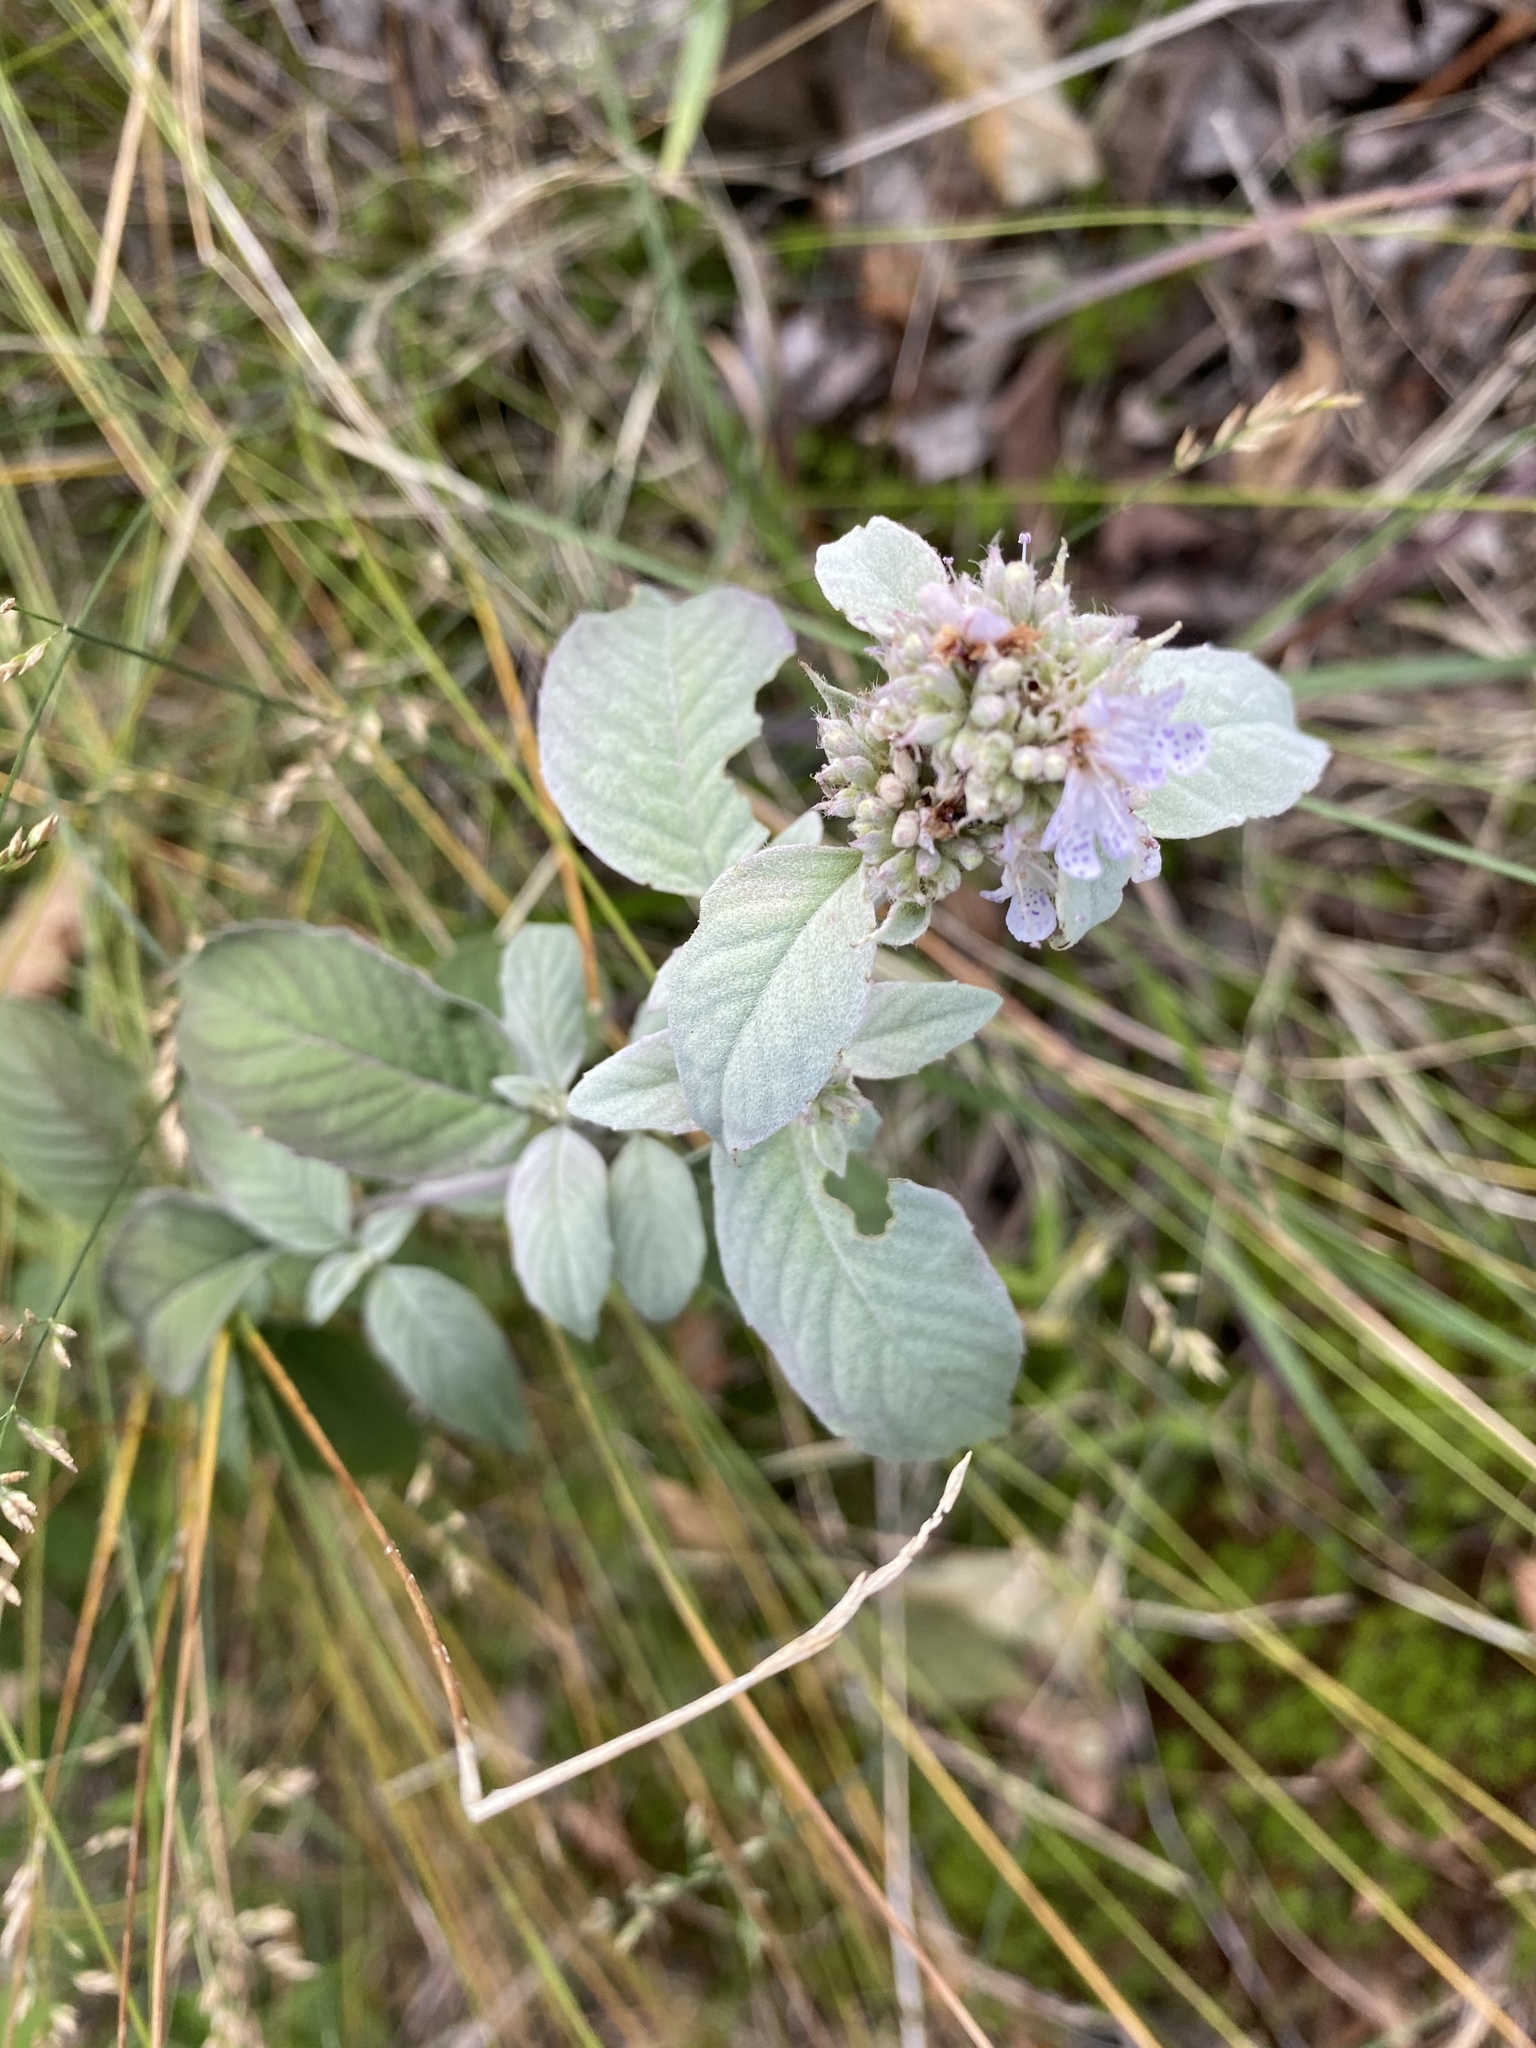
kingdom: Plantae
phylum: Tracheophyta
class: Magnoliopsida
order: Lamiales
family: Lamiaceae
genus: Pycnanthemum
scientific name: Pycnanthemum incanum
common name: Hoary mountain-mint
